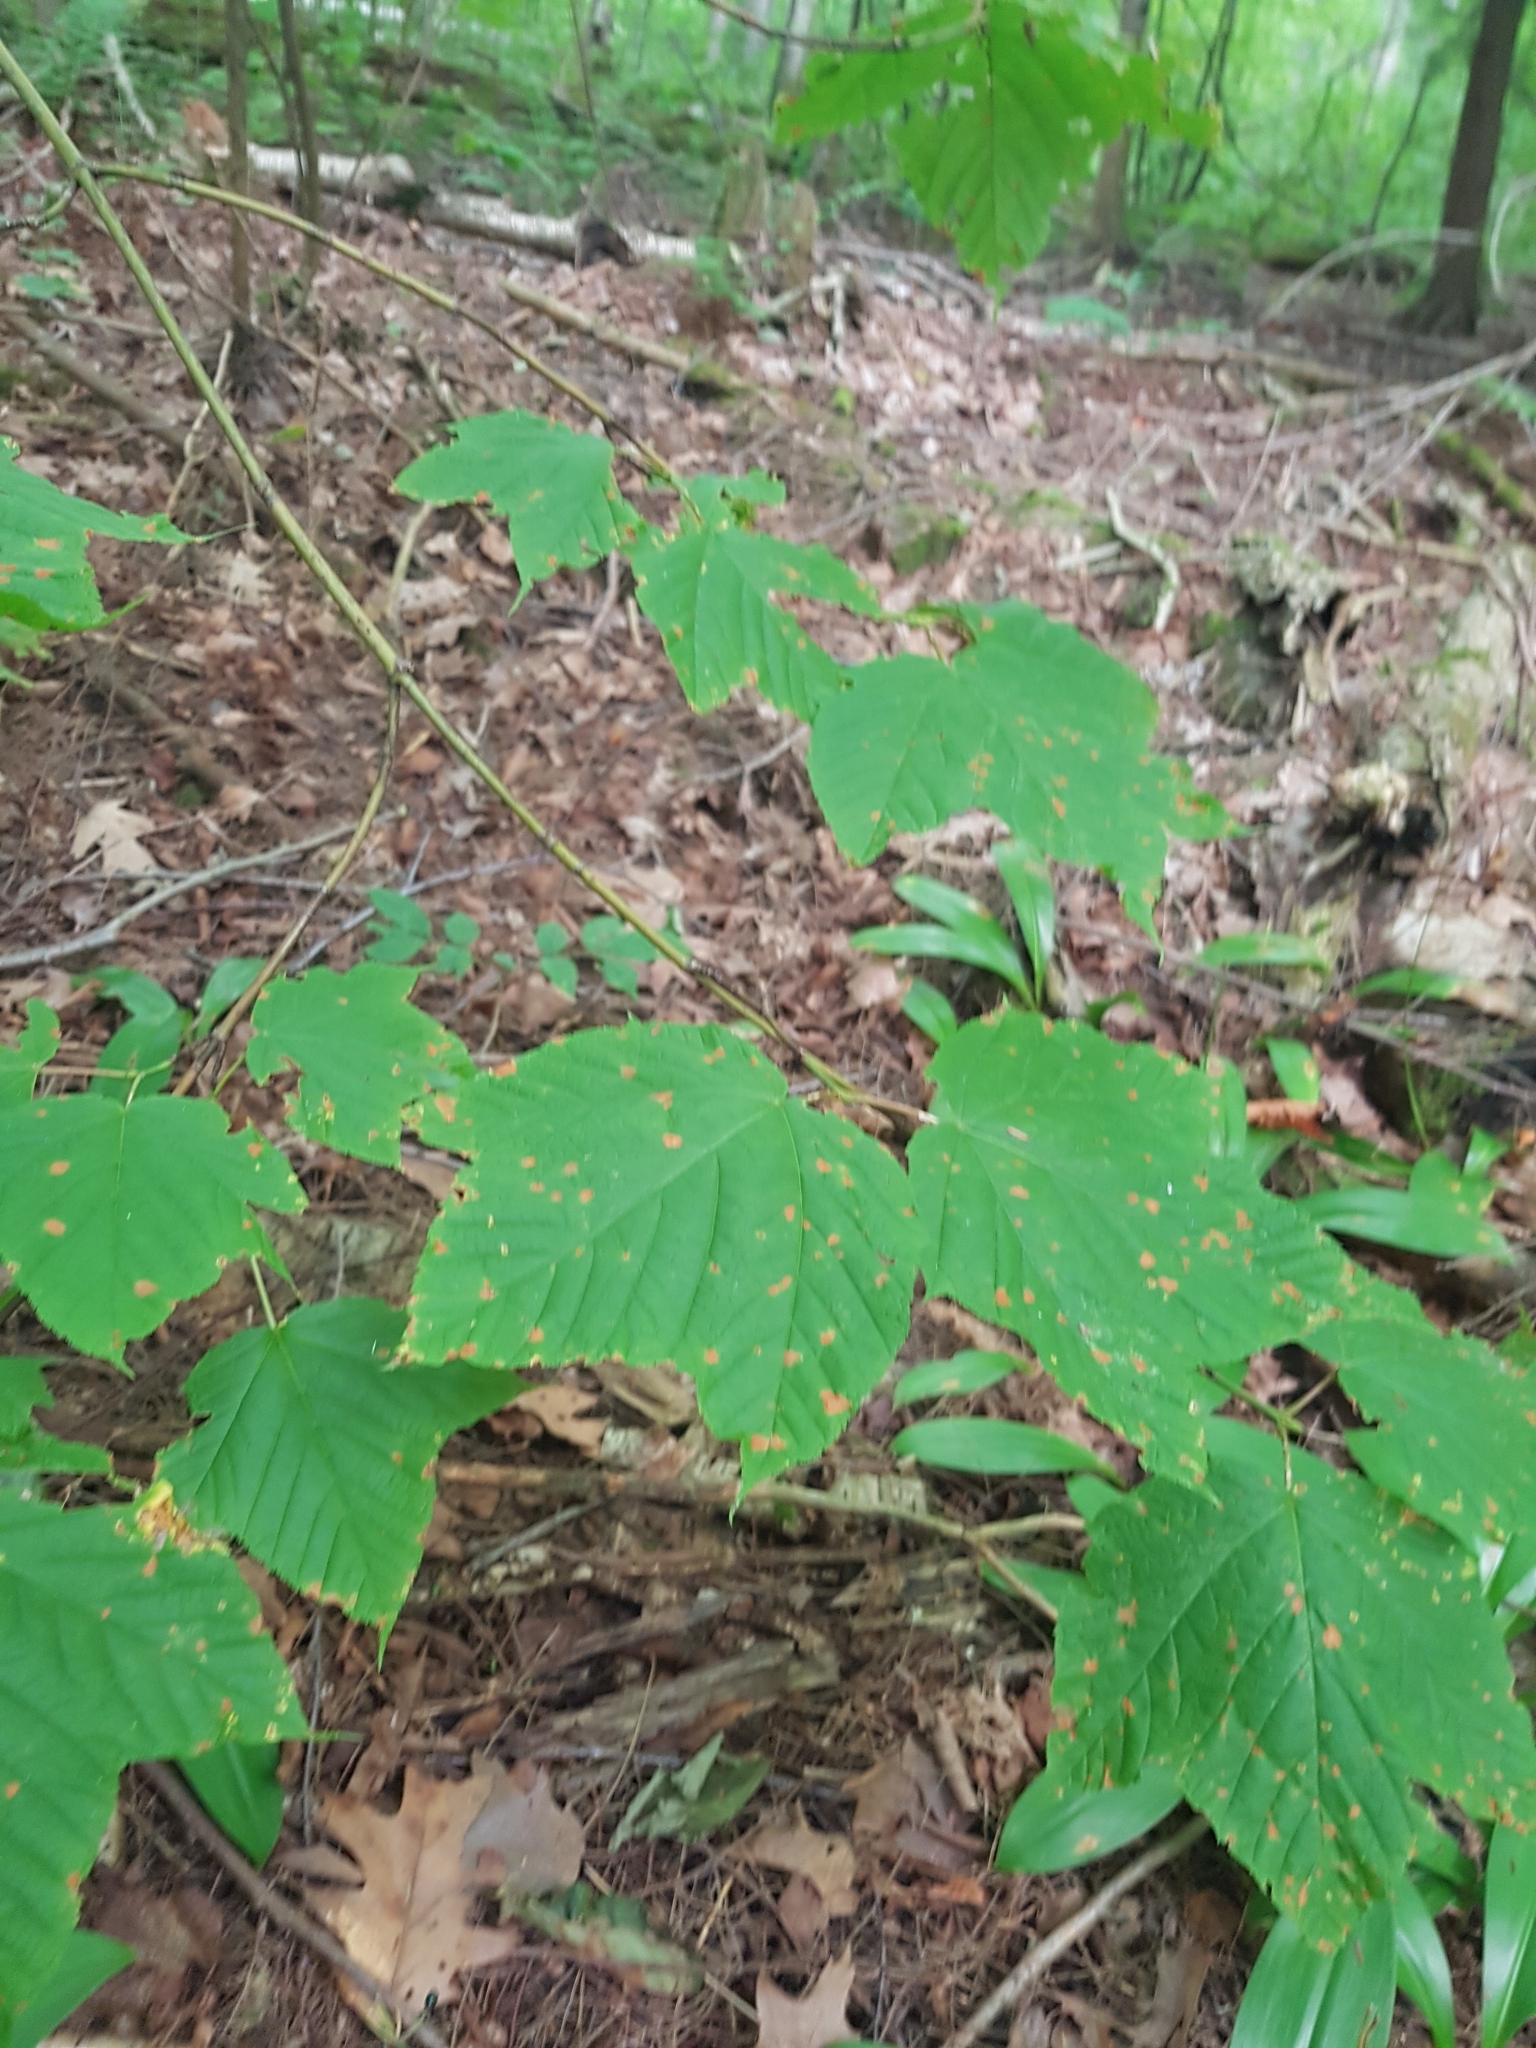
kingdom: Plantae
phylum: Tracheophyta
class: Magnoliopsida
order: Sapindales
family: Sapindaceae
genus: Acer
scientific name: Acer pensylvanicum
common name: Moosewood
